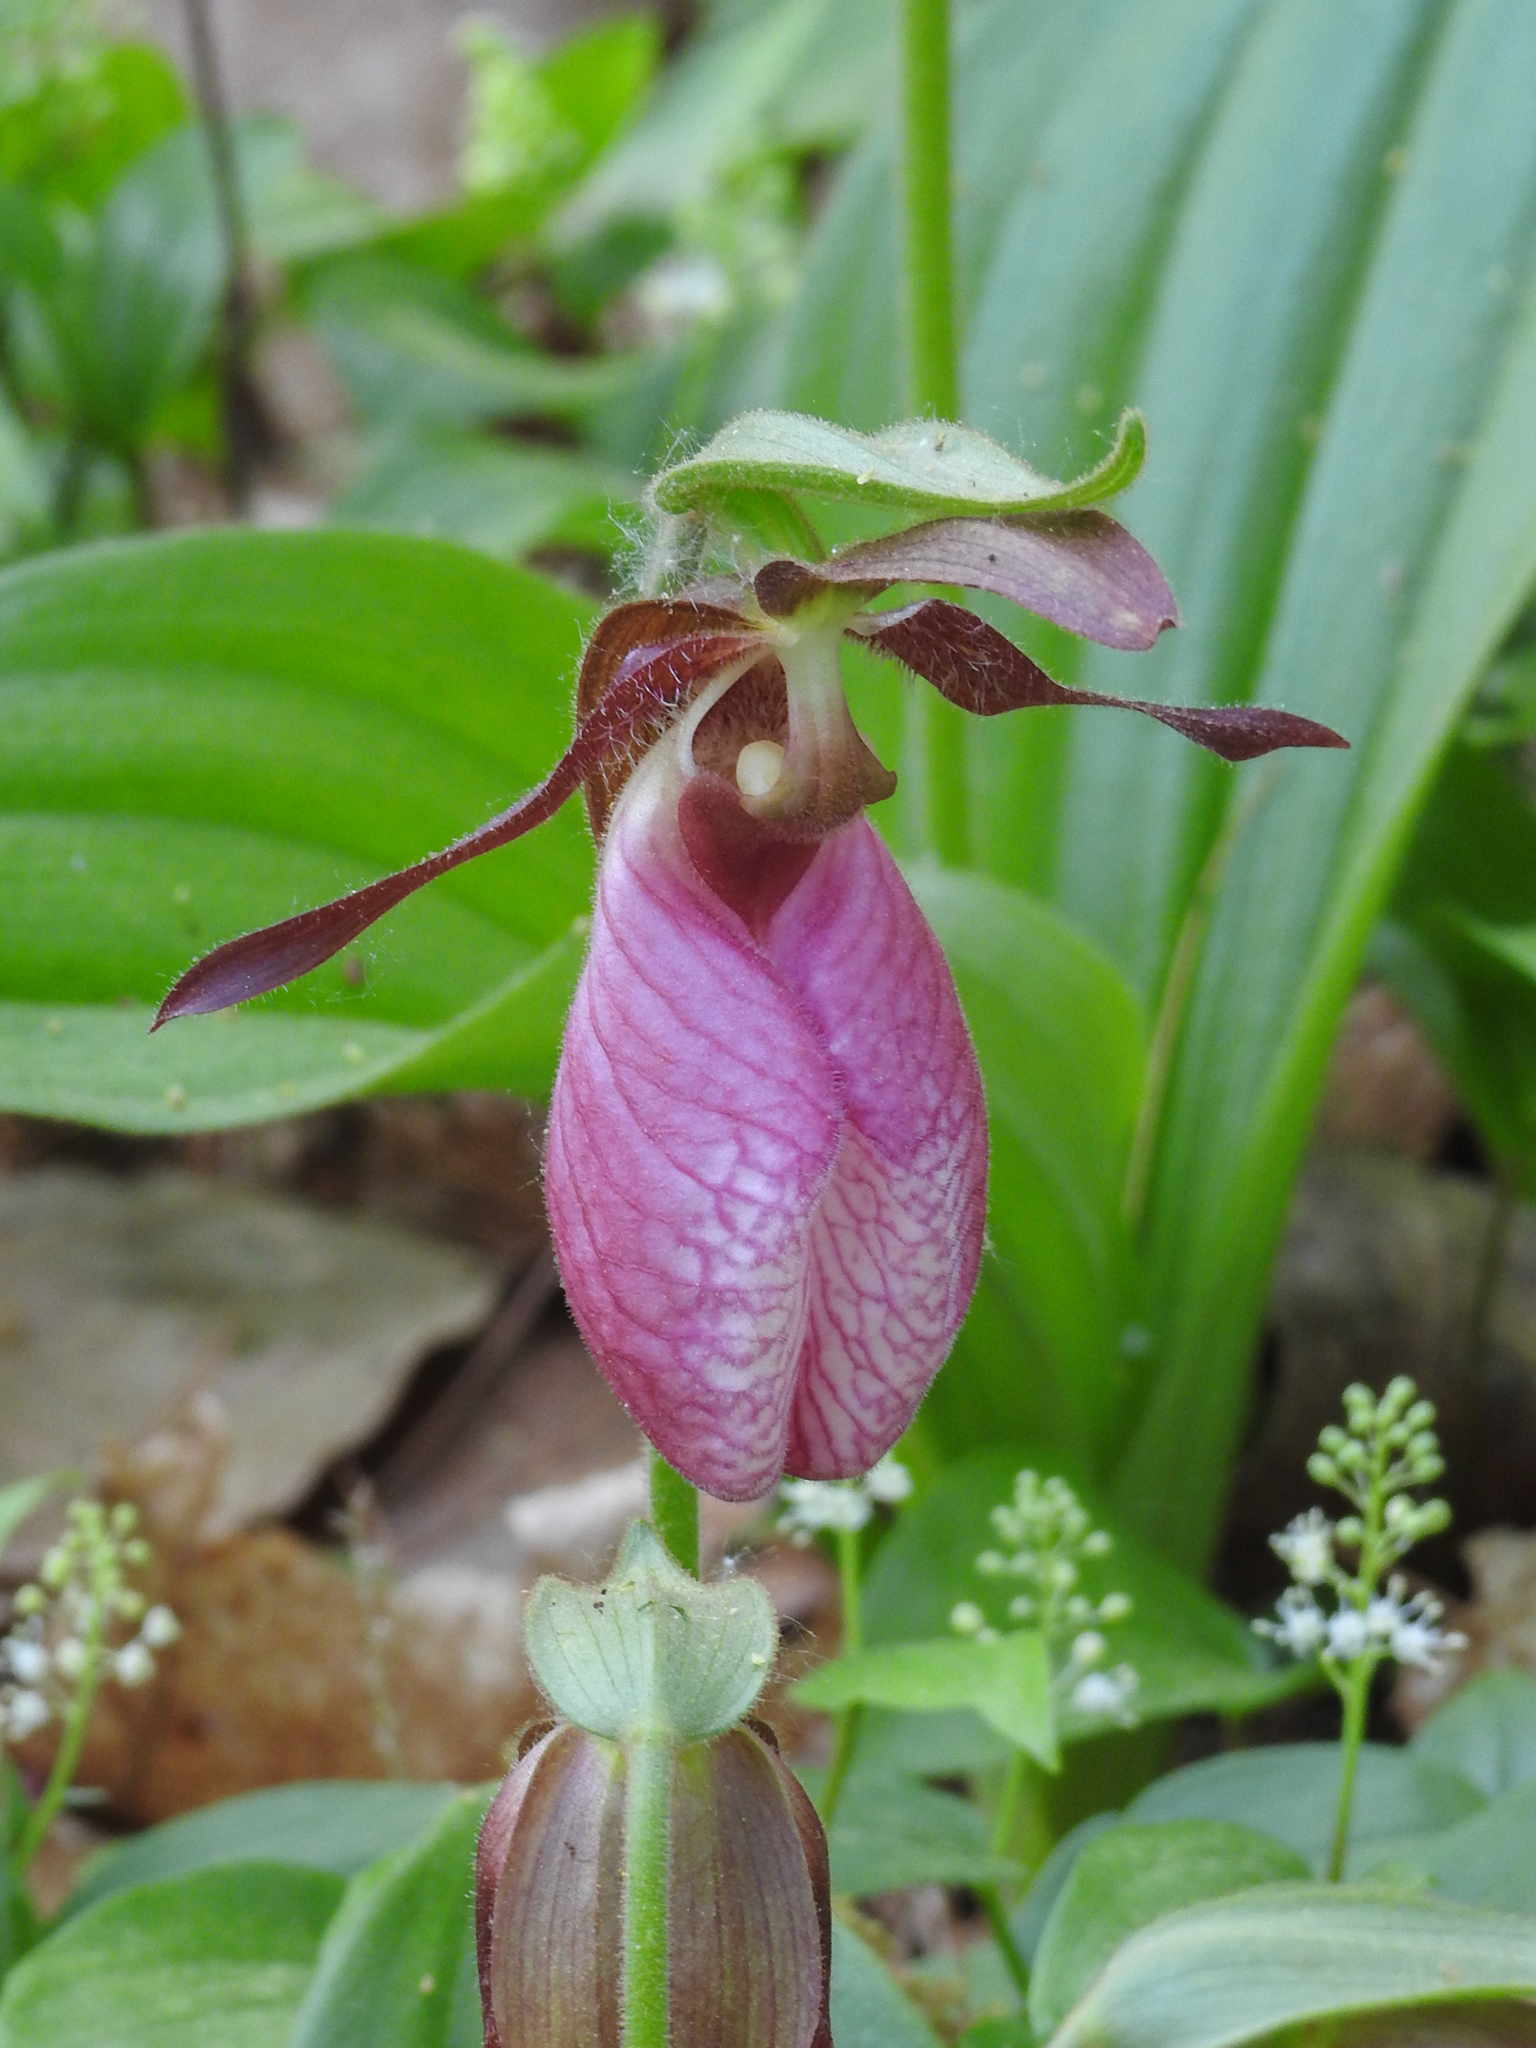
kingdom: Plantae
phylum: Tracheophyta
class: Liliopsida
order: Asparagales
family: Orchidaceae
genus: Cypripedium
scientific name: Cypripedium acaule
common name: Pink lady's-slipper
